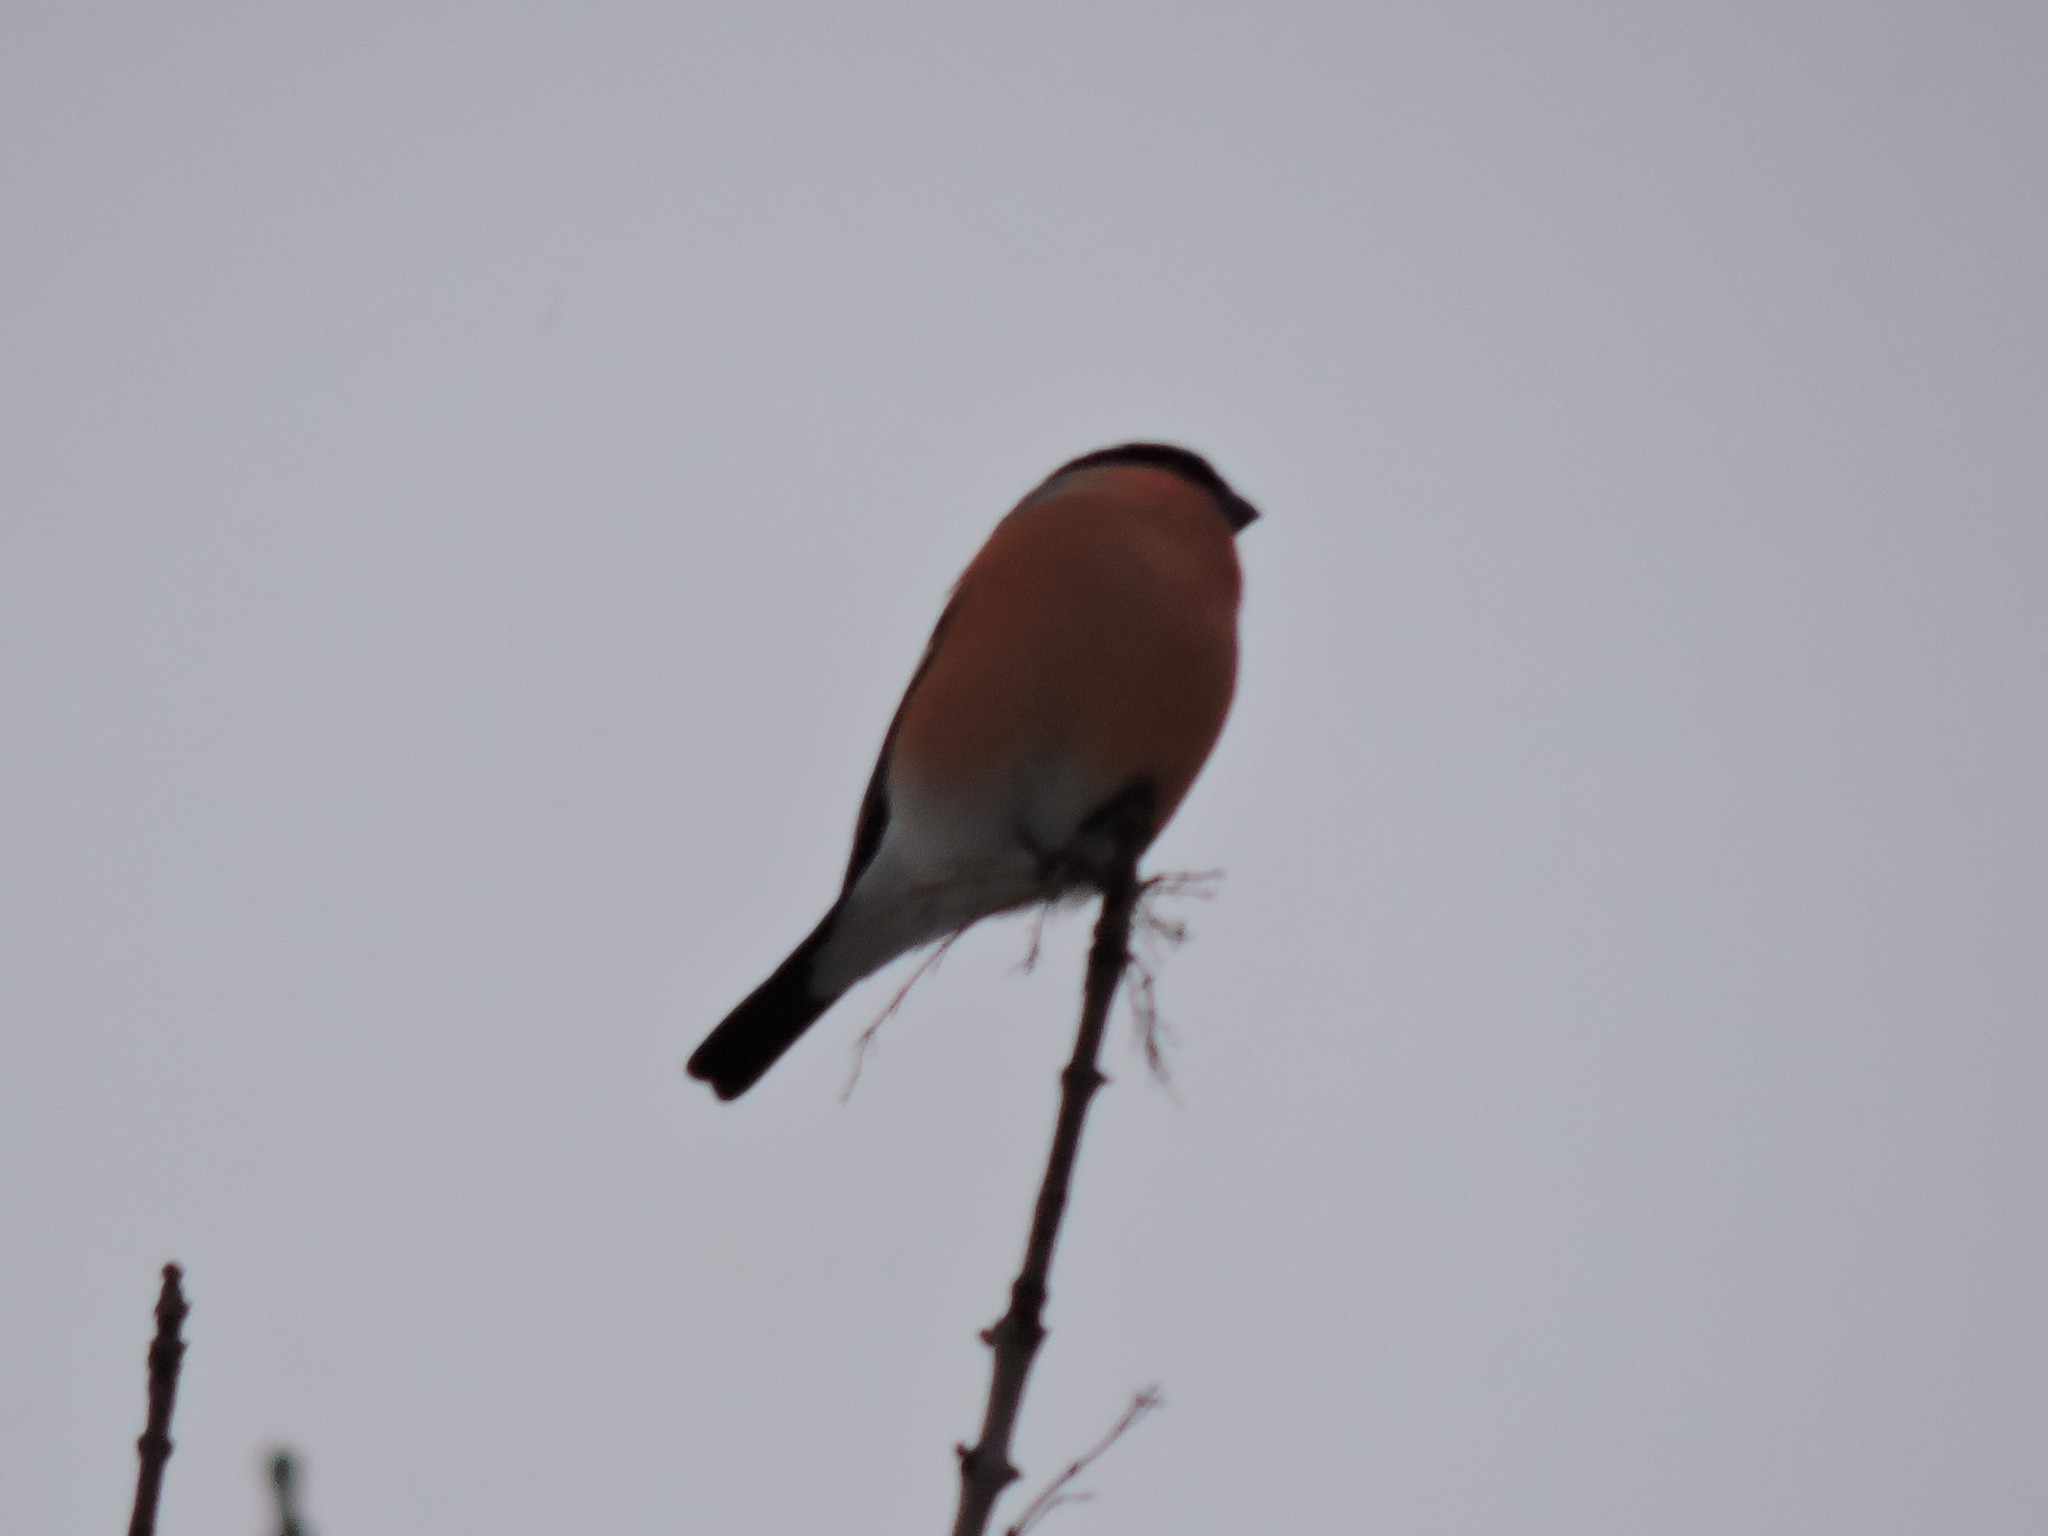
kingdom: Animalia
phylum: Chordata
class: Aves
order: Passeriformes
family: Fringillidae
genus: Pyrrhula
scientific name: Pyrrhula pyrrhula
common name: Eurasian bullfinch
